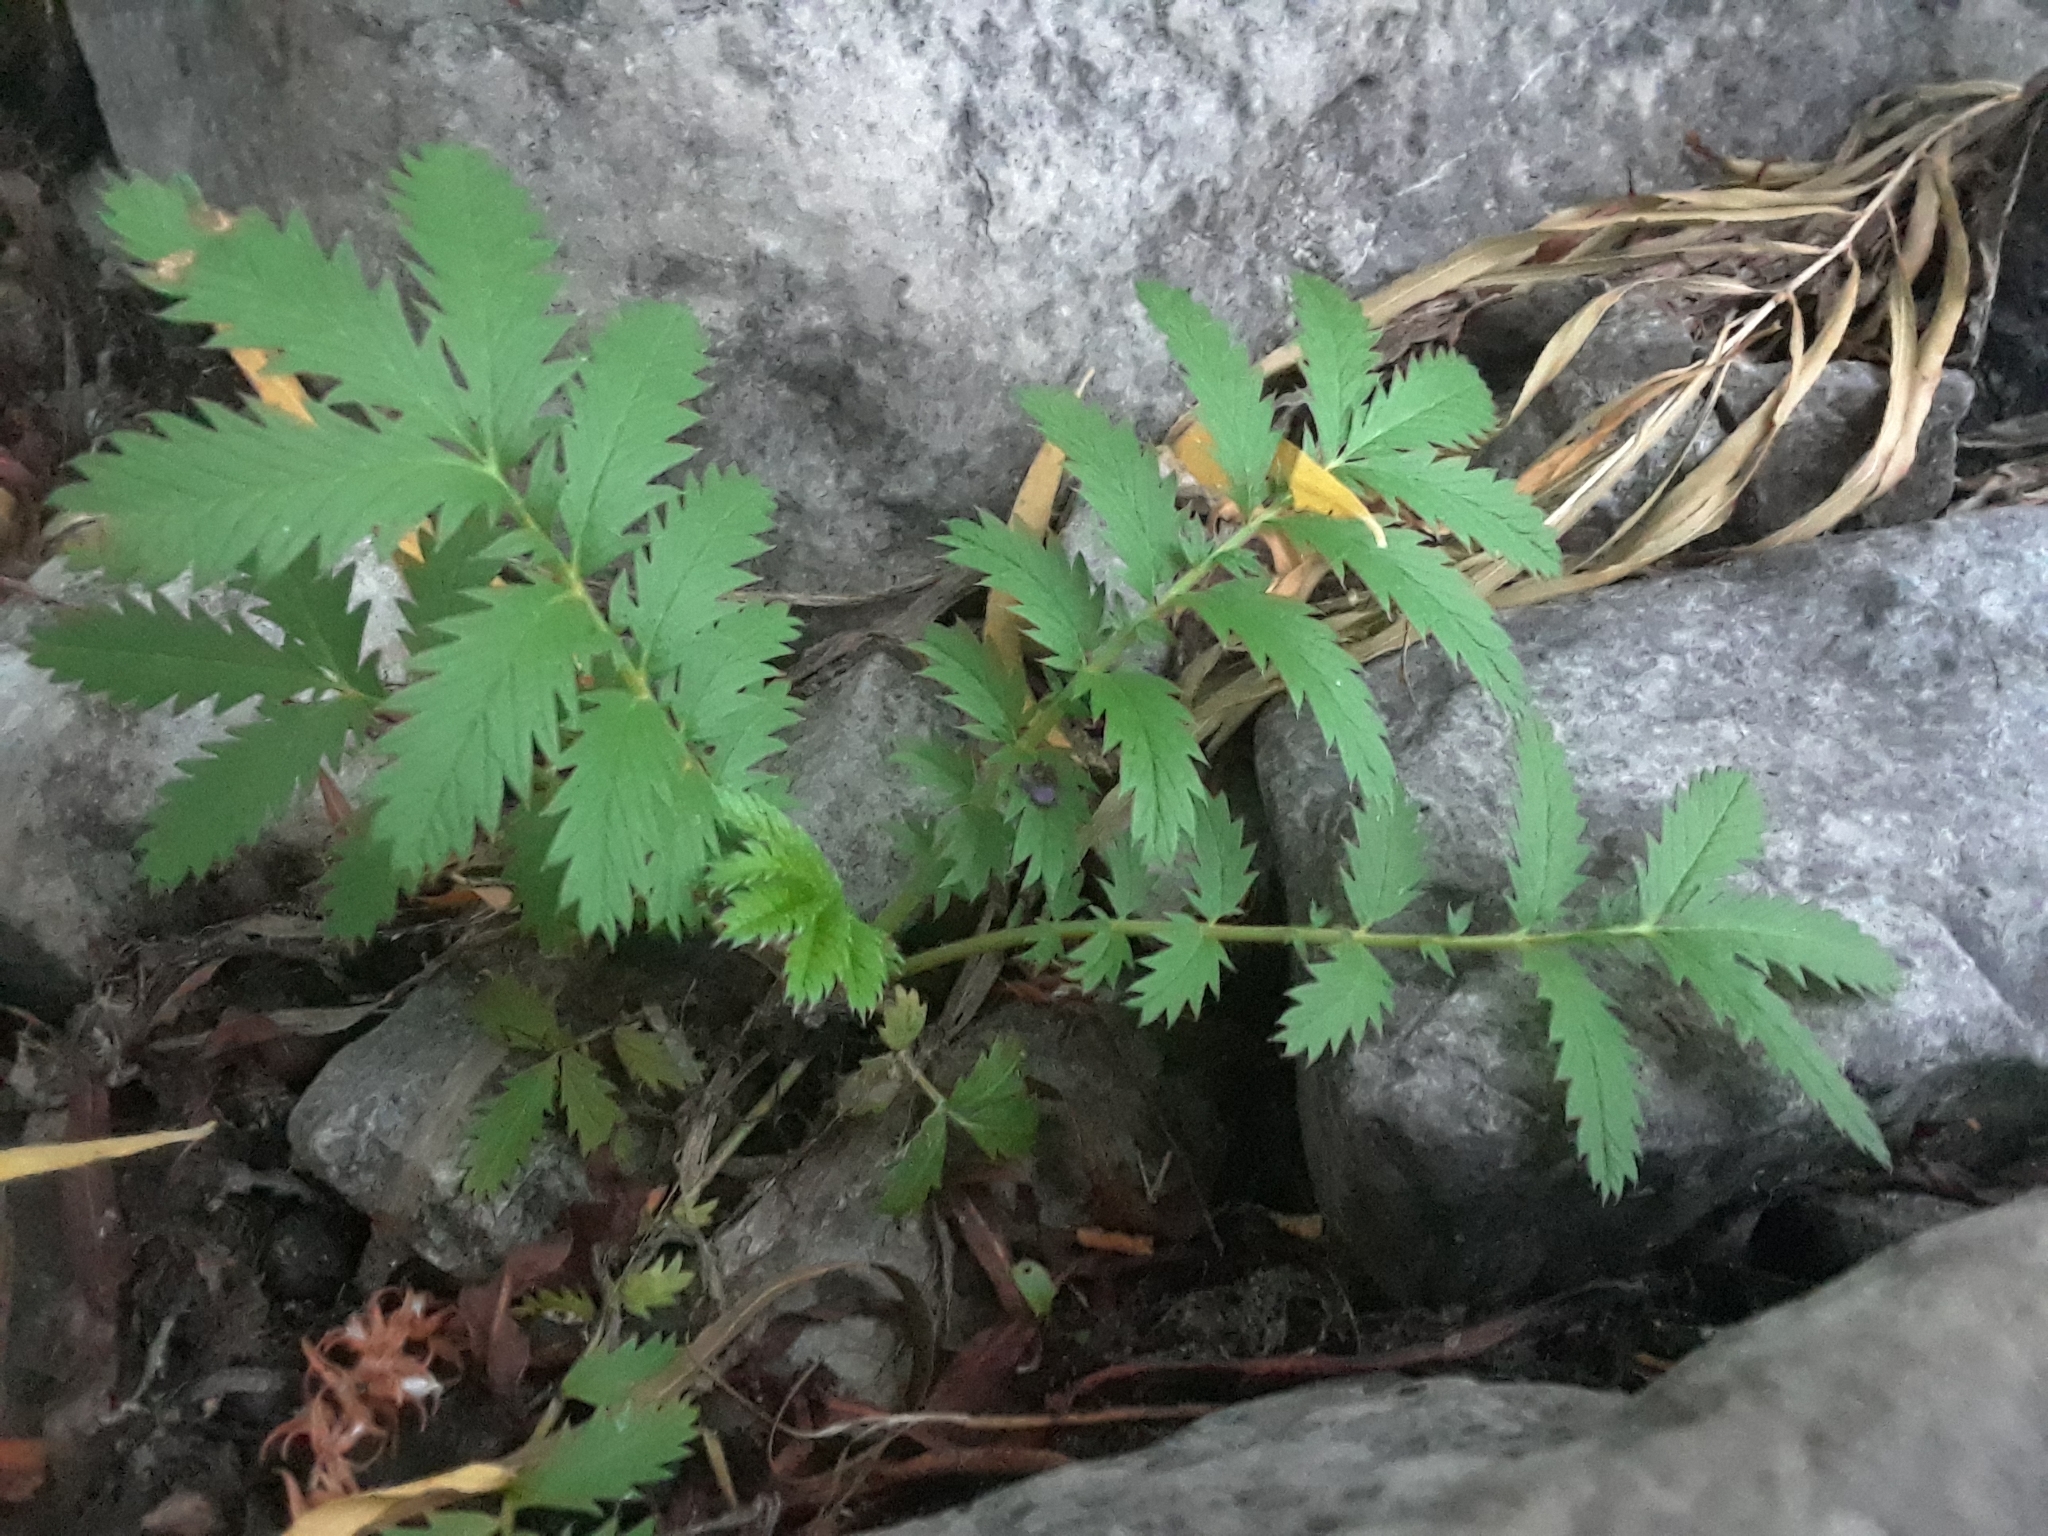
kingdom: Plantae
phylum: Tracheophyta
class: Magnoliopsida
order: Rosales
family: Rosaceae
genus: Argentina
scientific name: Argentina anserina
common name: Common silverweed
